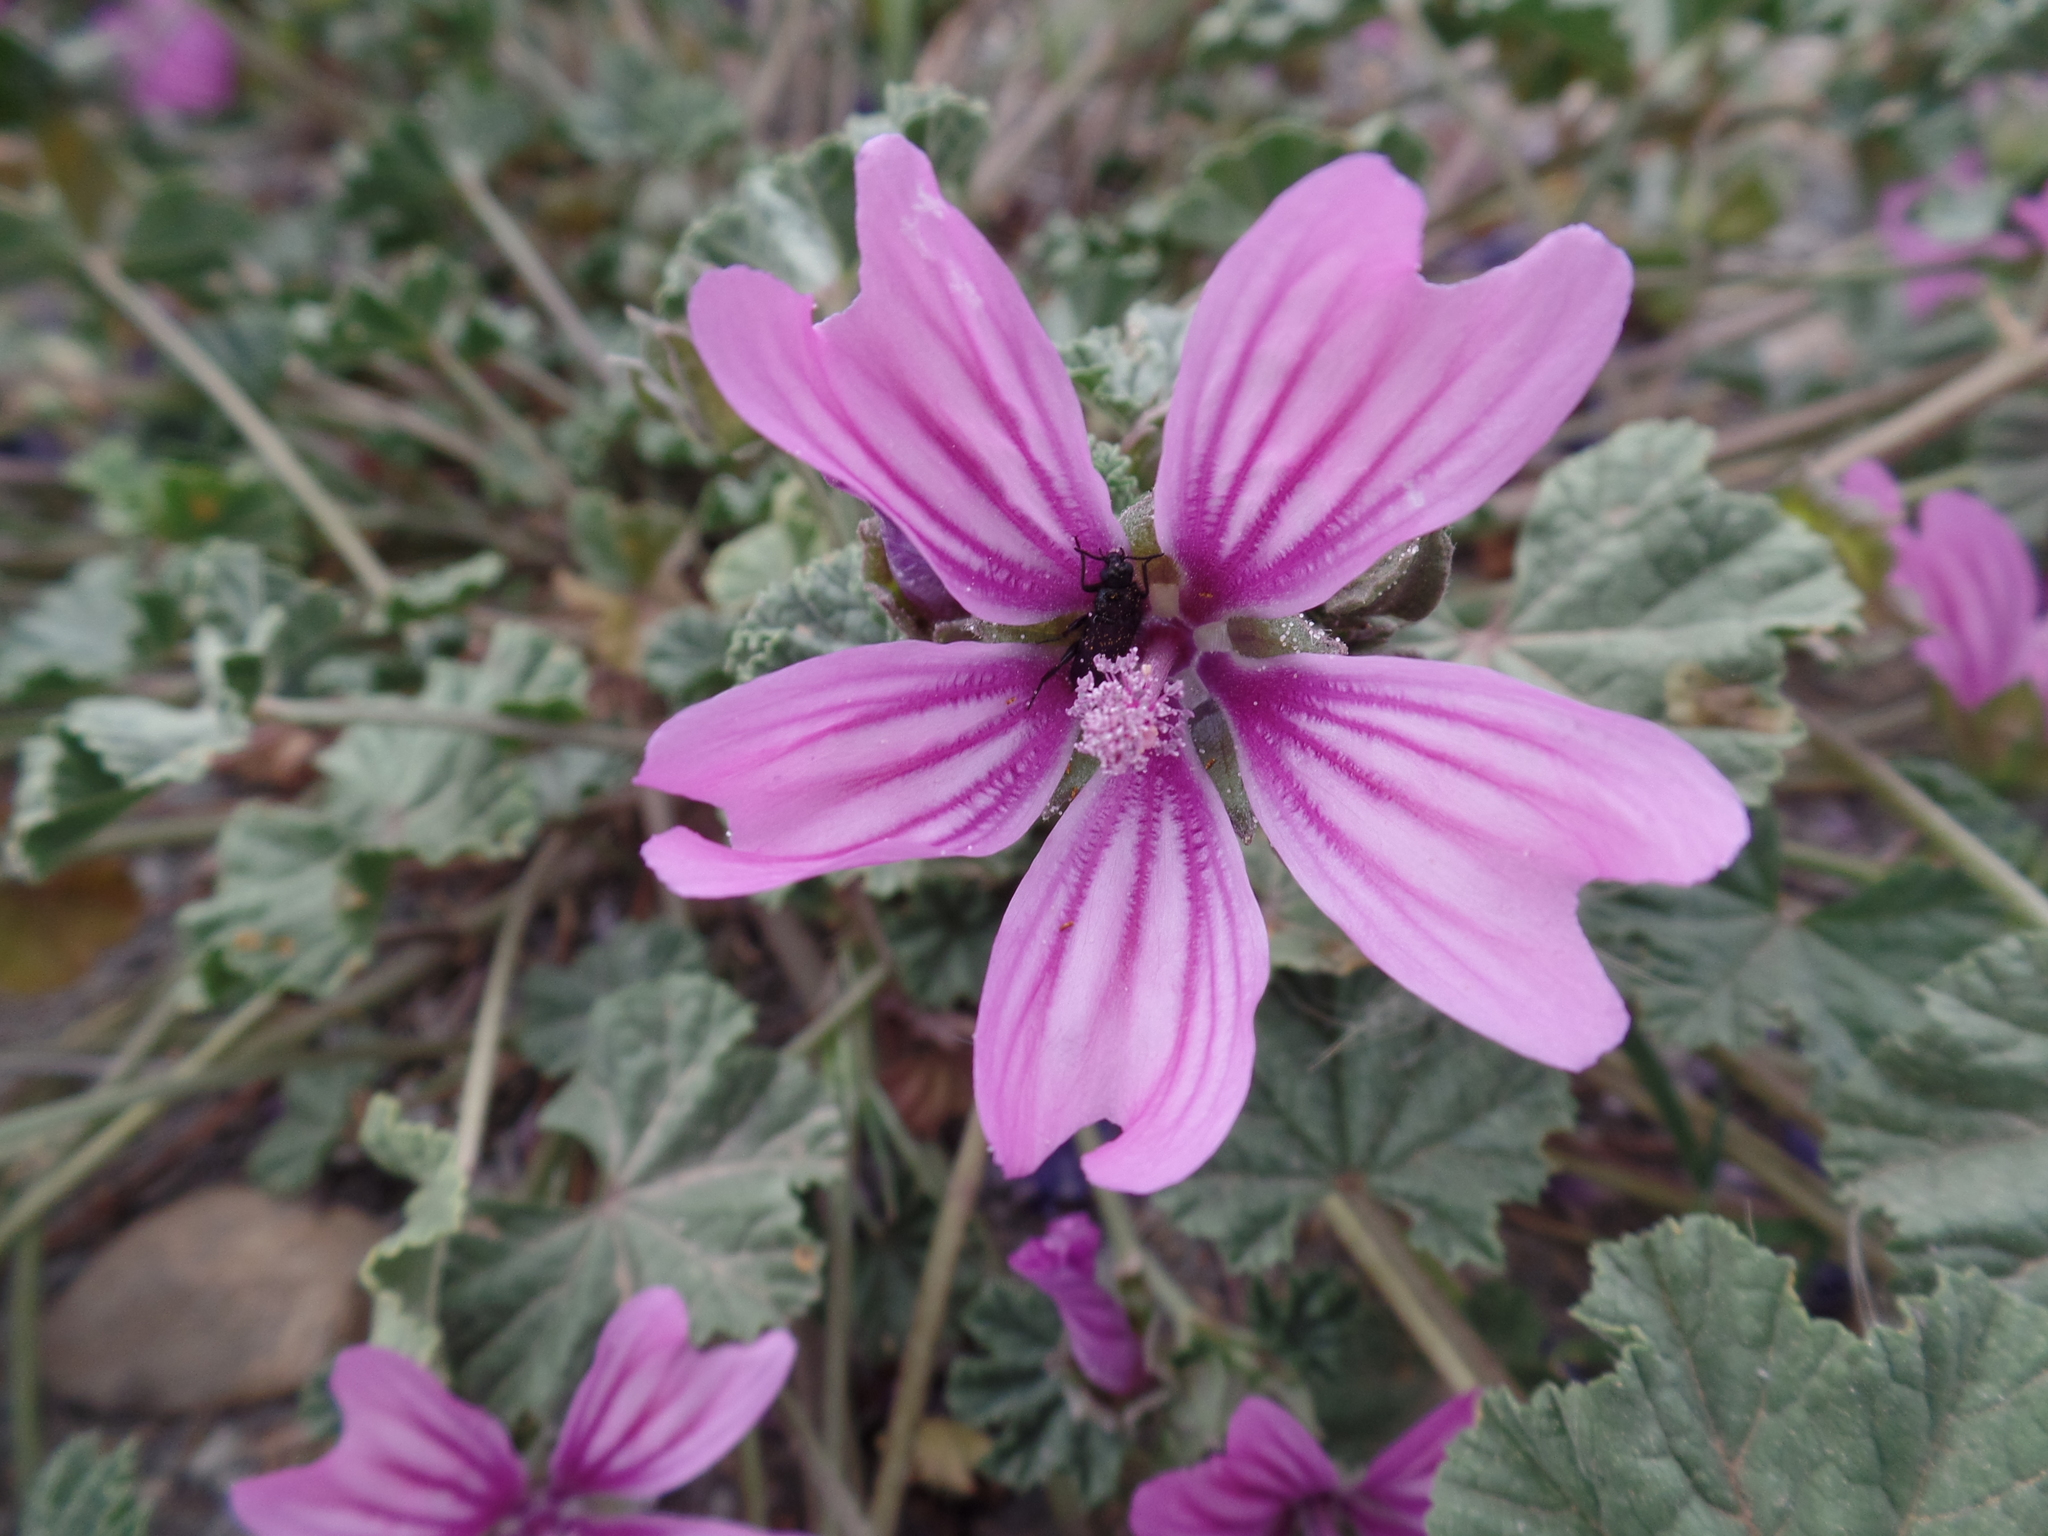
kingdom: Plantae
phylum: Tracheophyta
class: Magnoliopsida
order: Malvales
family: Malvaceae
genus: Malva
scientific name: Malva sylvestris
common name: Common mallow
